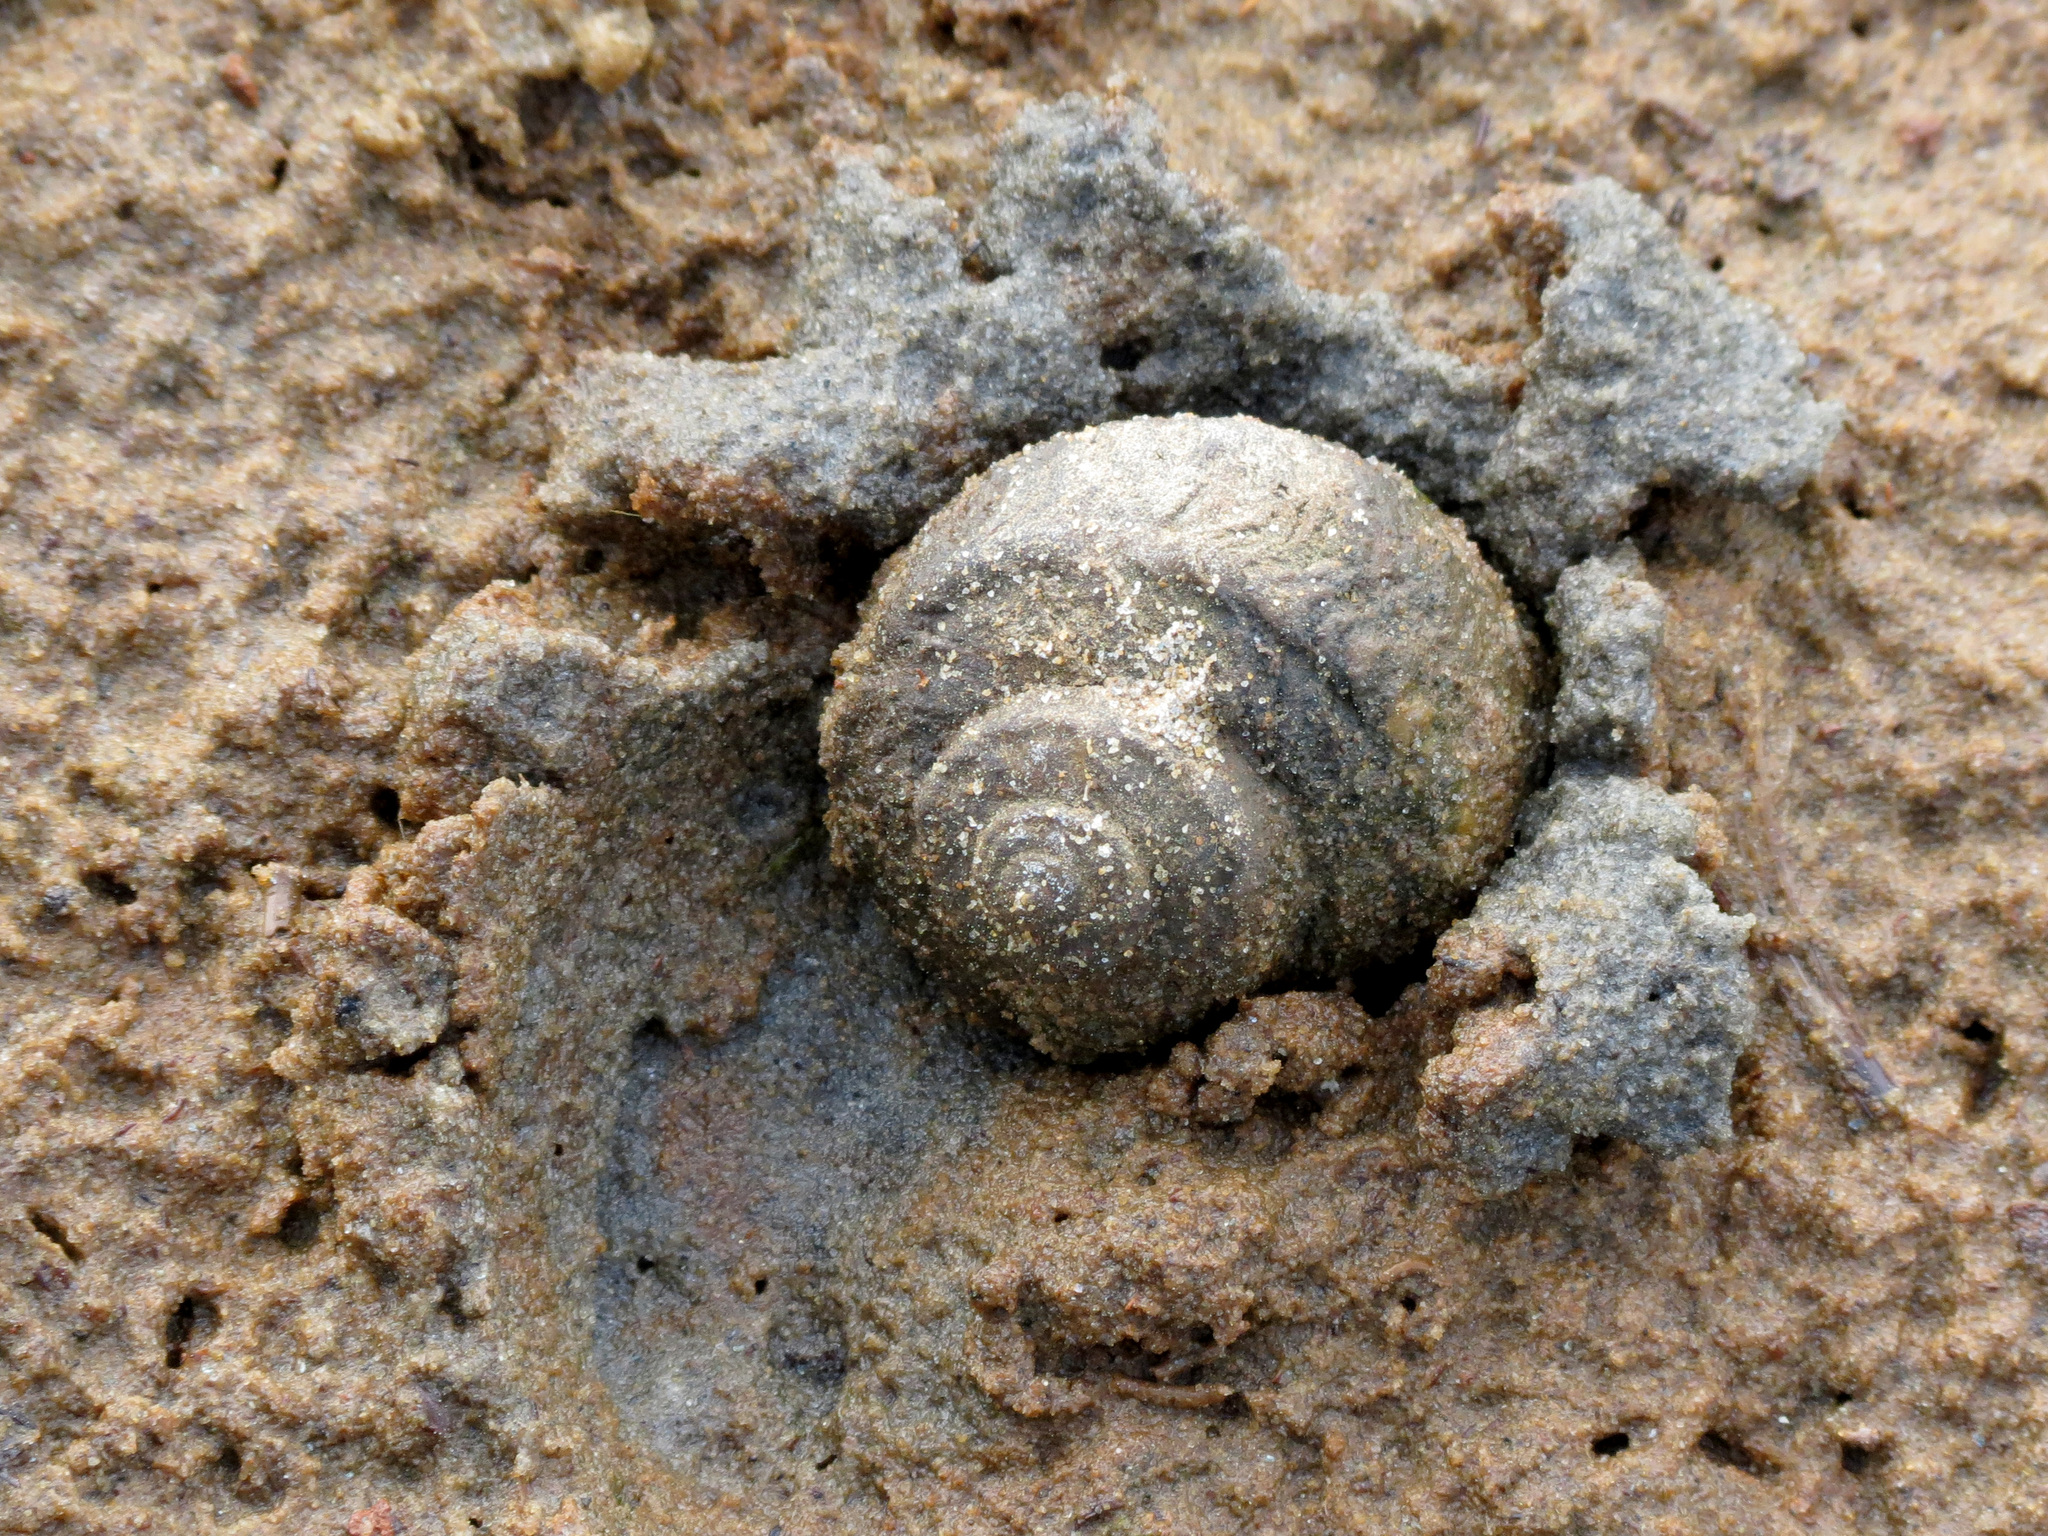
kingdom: Animalia
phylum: Mollusca
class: Gastropoda
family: Amphibolidae
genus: Amphibola
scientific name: Amphibola crenata
